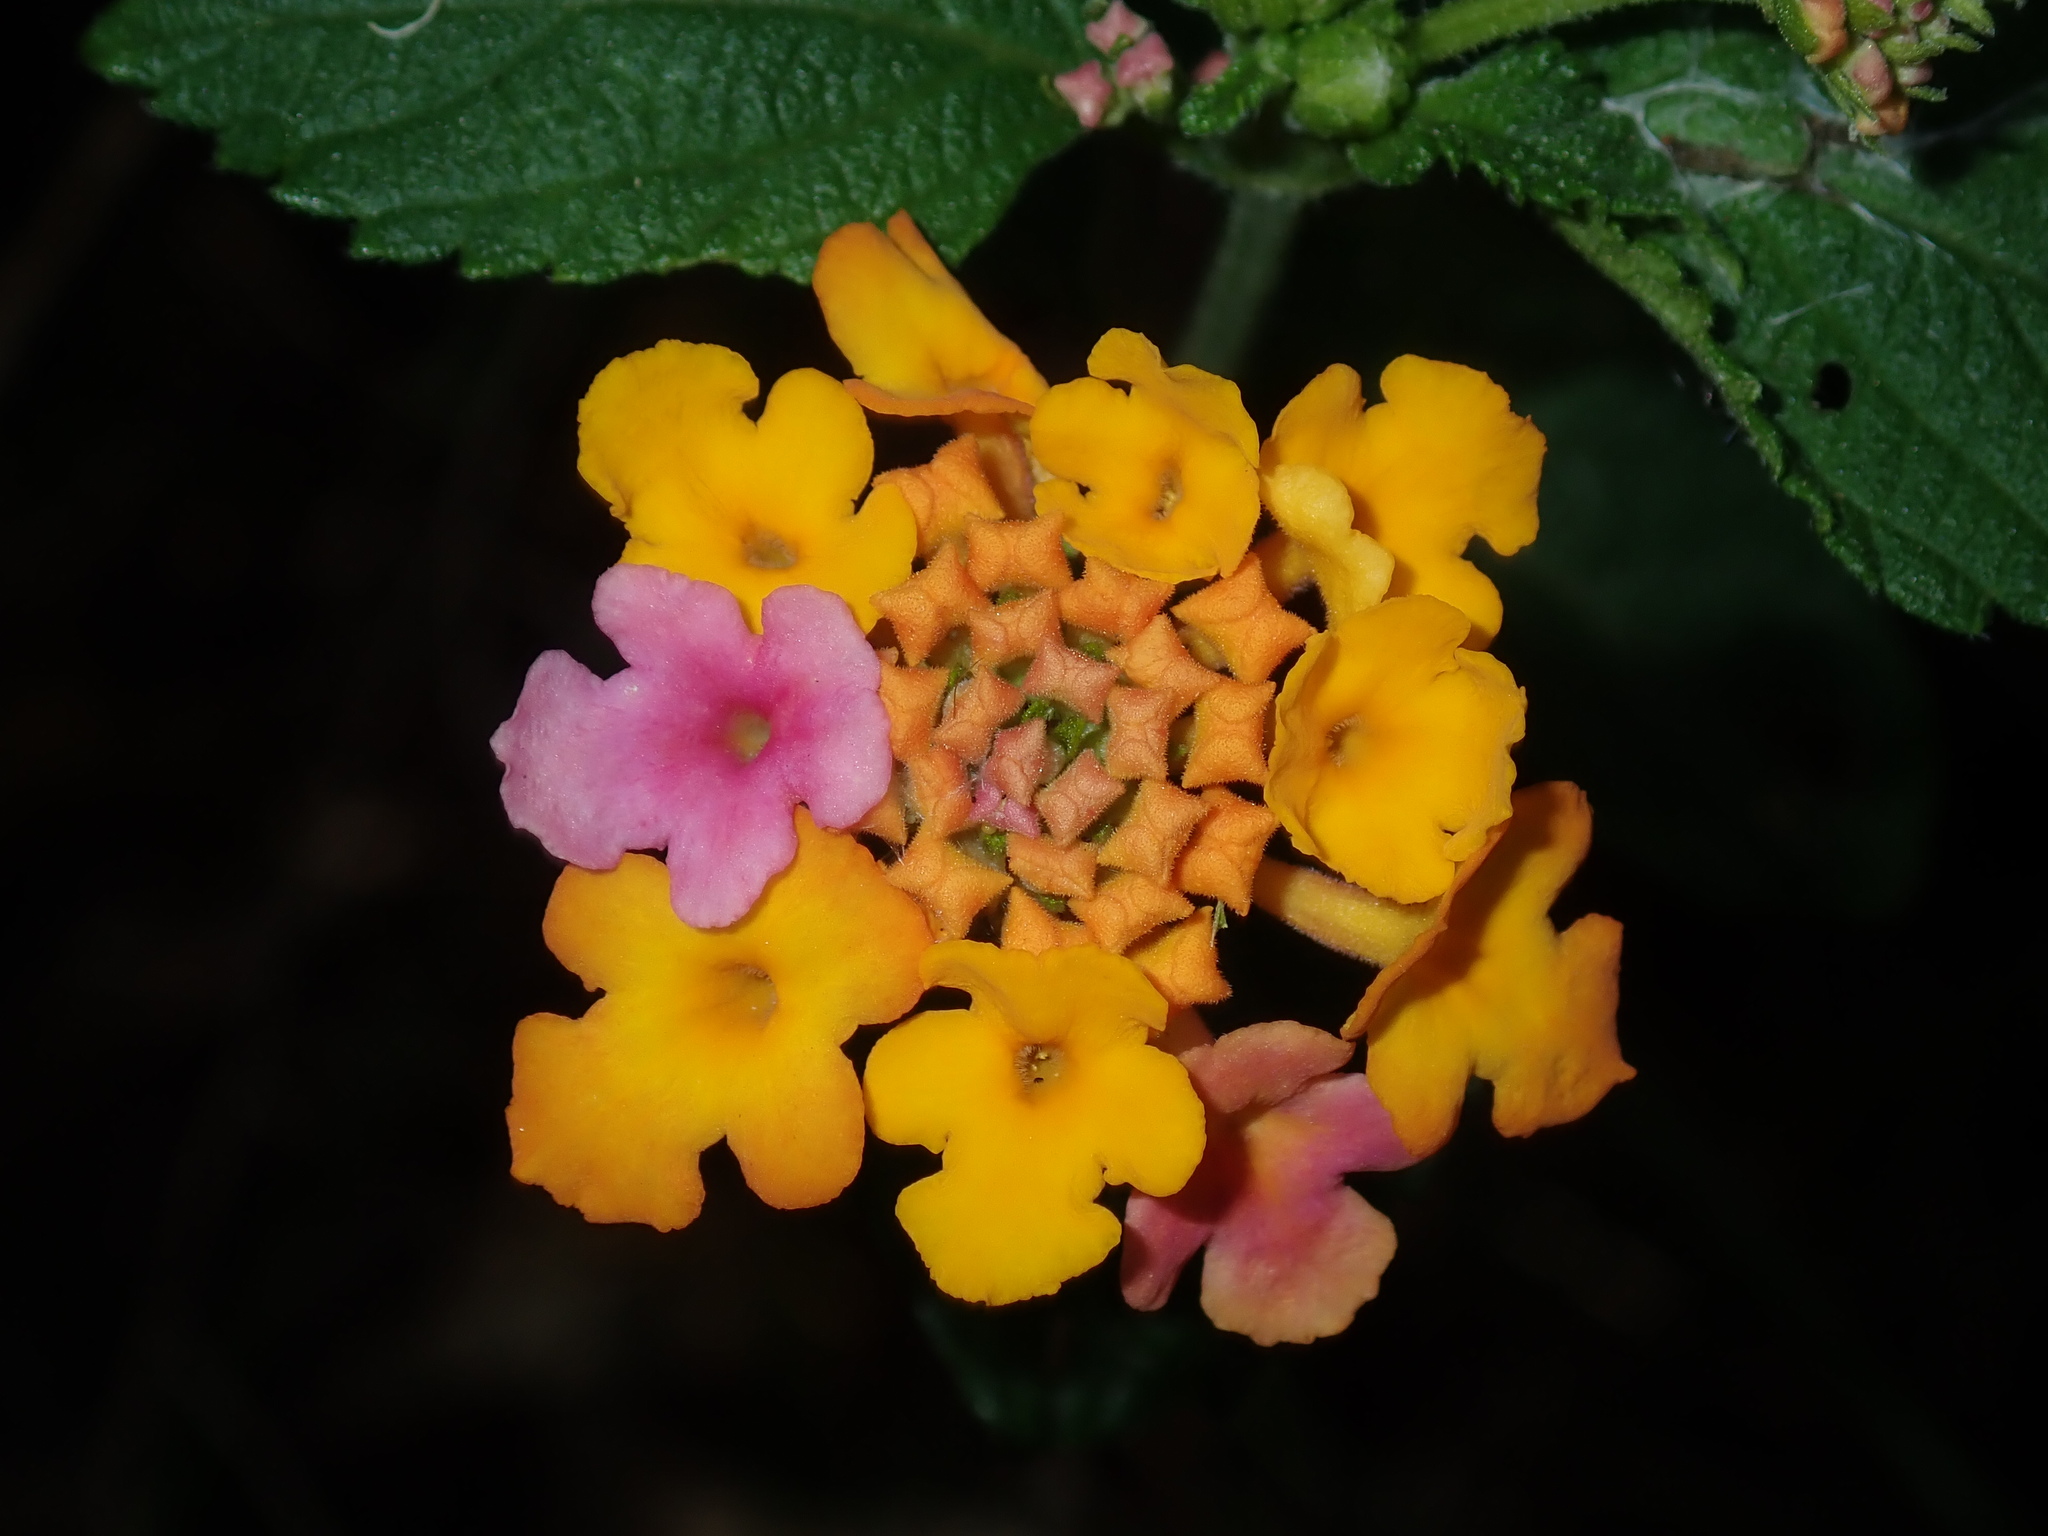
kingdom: Plantae
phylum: Tracheophyta
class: Magnoliopsida
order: Lamiales
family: Verbenaceae
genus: Lantana
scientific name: Lantana camara
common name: Lantana
